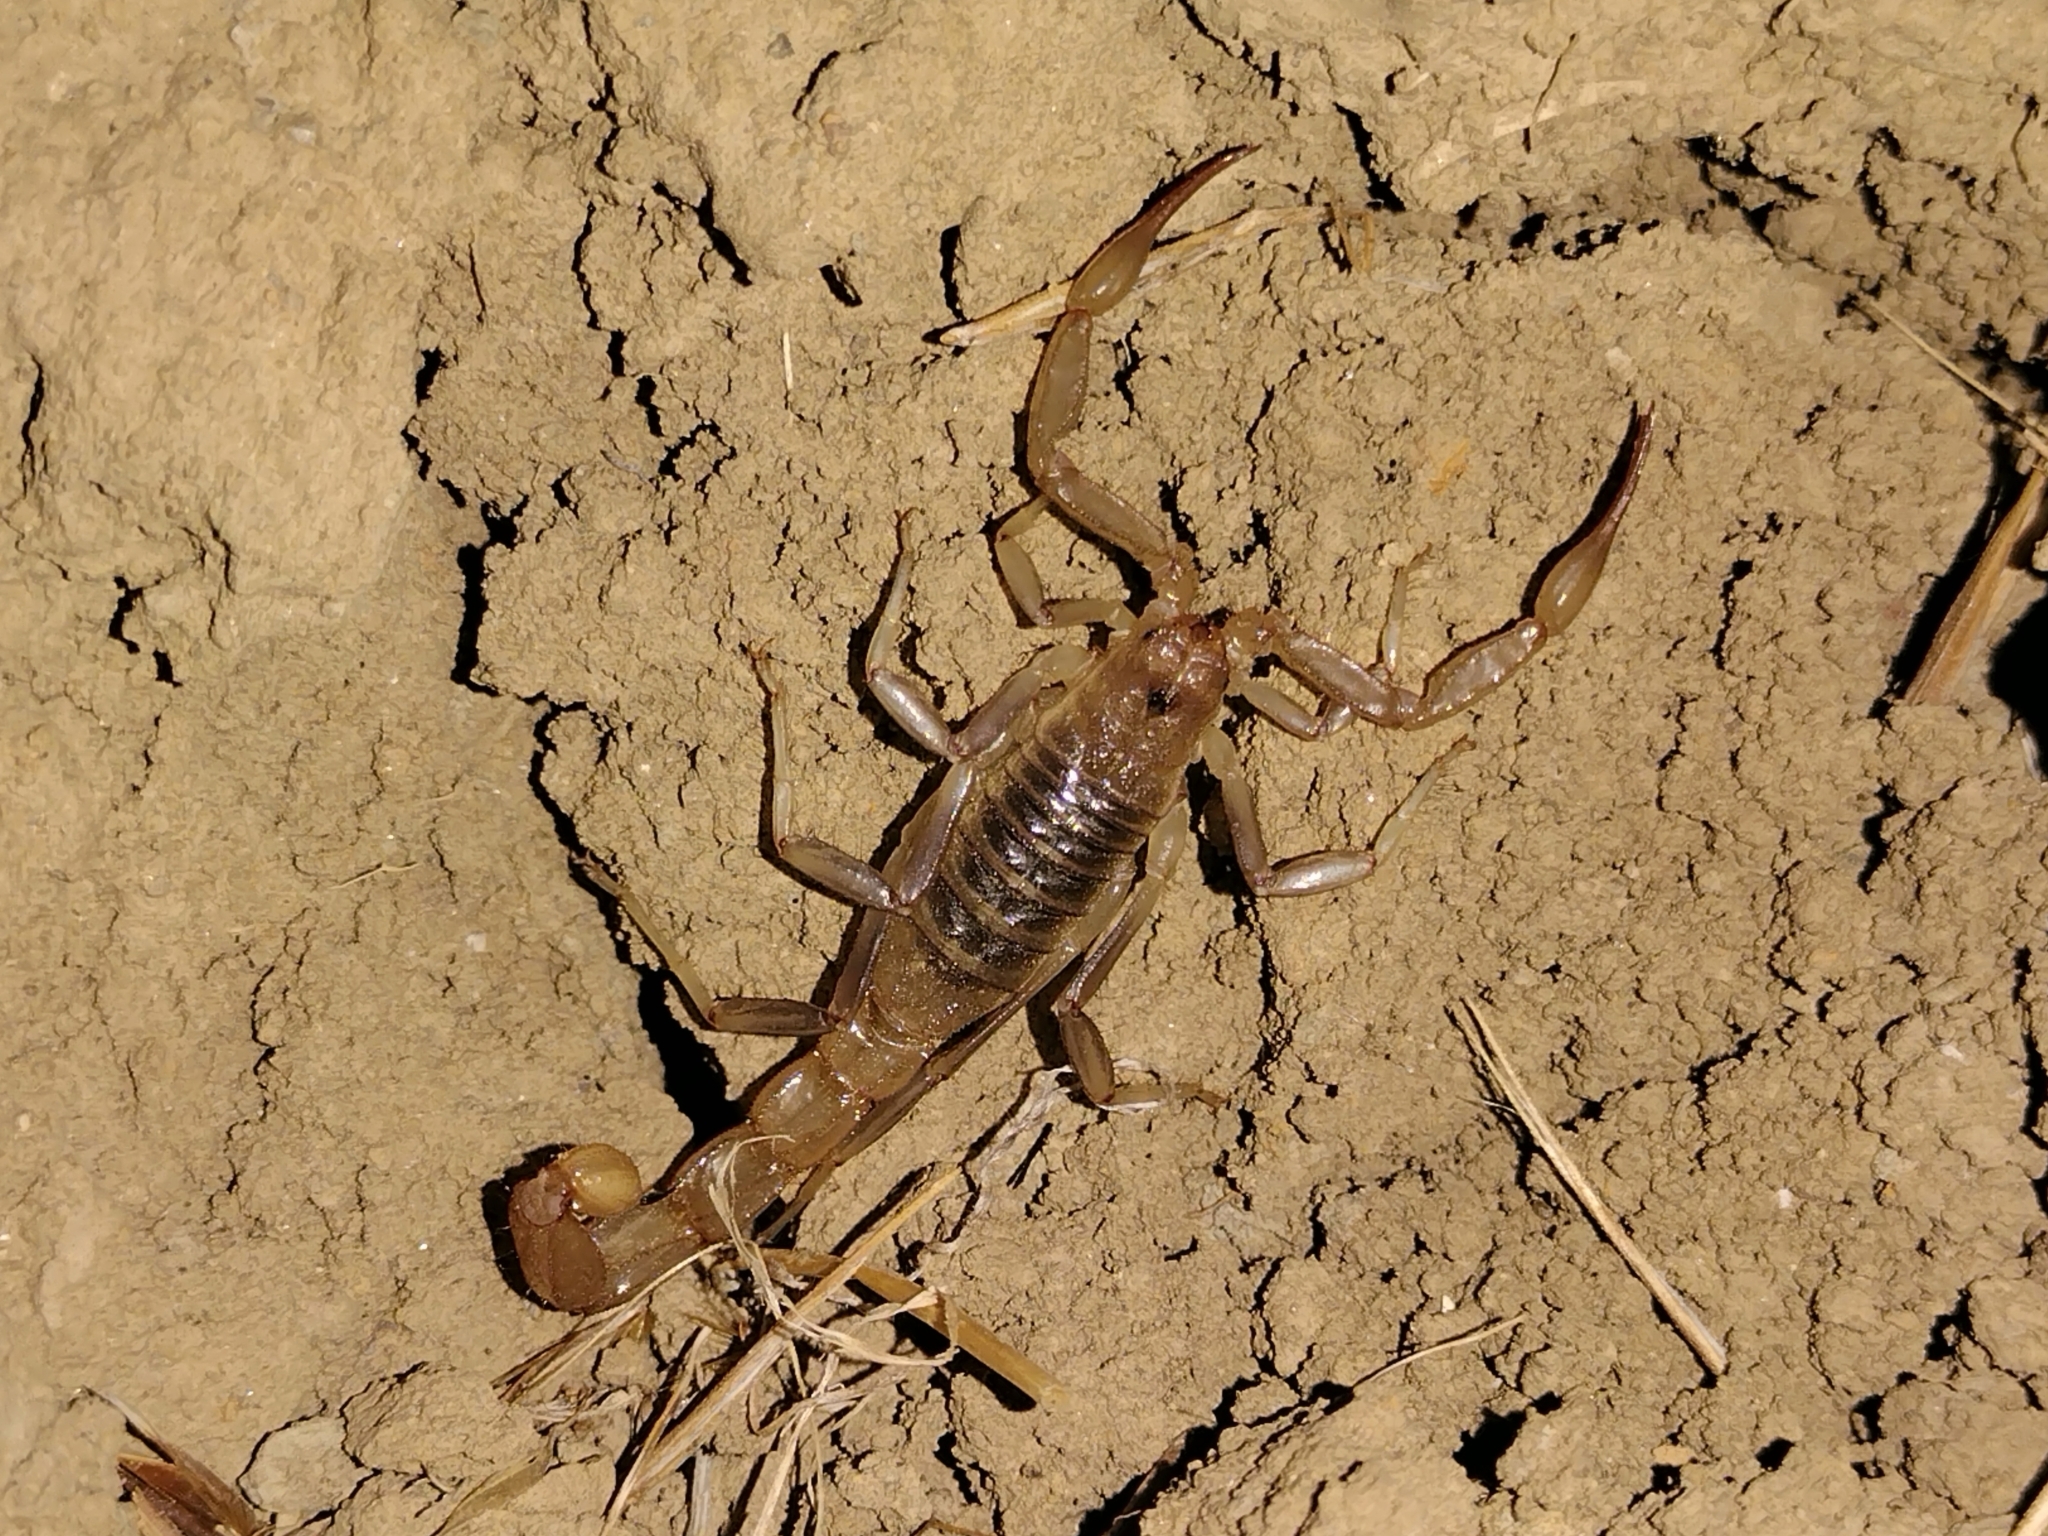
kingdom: Animalia
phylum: Arthropoda
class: Arachnida
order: Scorpiones
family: Vaejovidae
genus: Paravaejovis
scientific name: Paravaejovis puritanus
